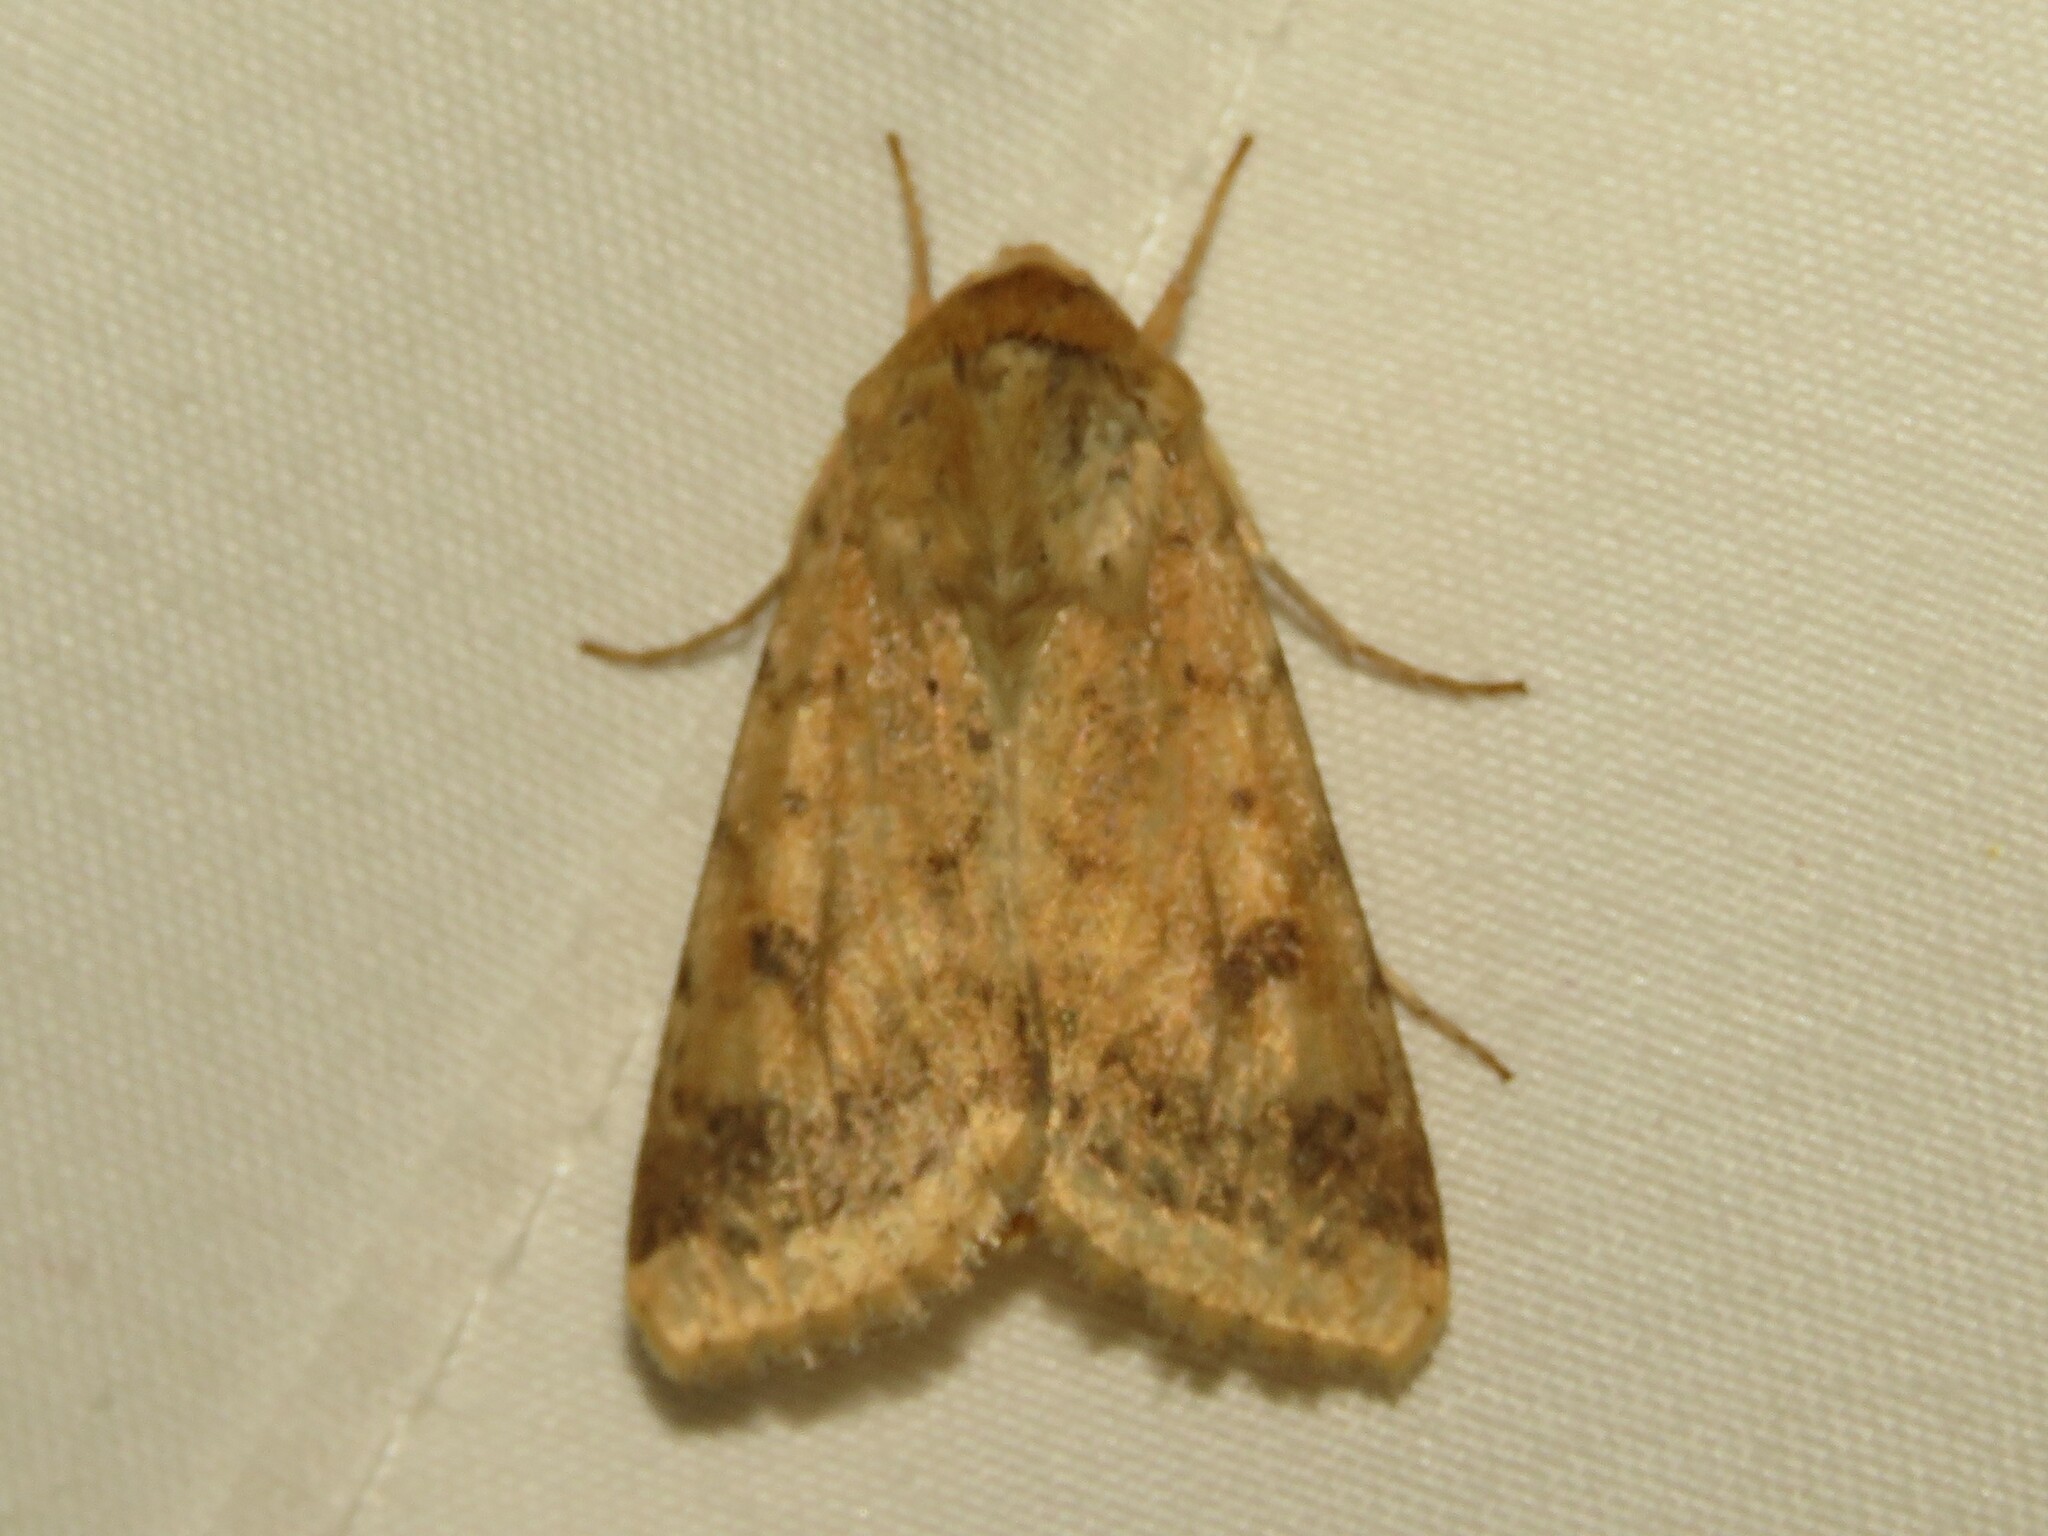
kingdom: Animalia
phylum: Arthropoda
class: Insecta
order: Lepidoptera
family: Noctuidae
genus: Helicoverpa
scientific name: Helicoverpa zea
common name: Bollworm
